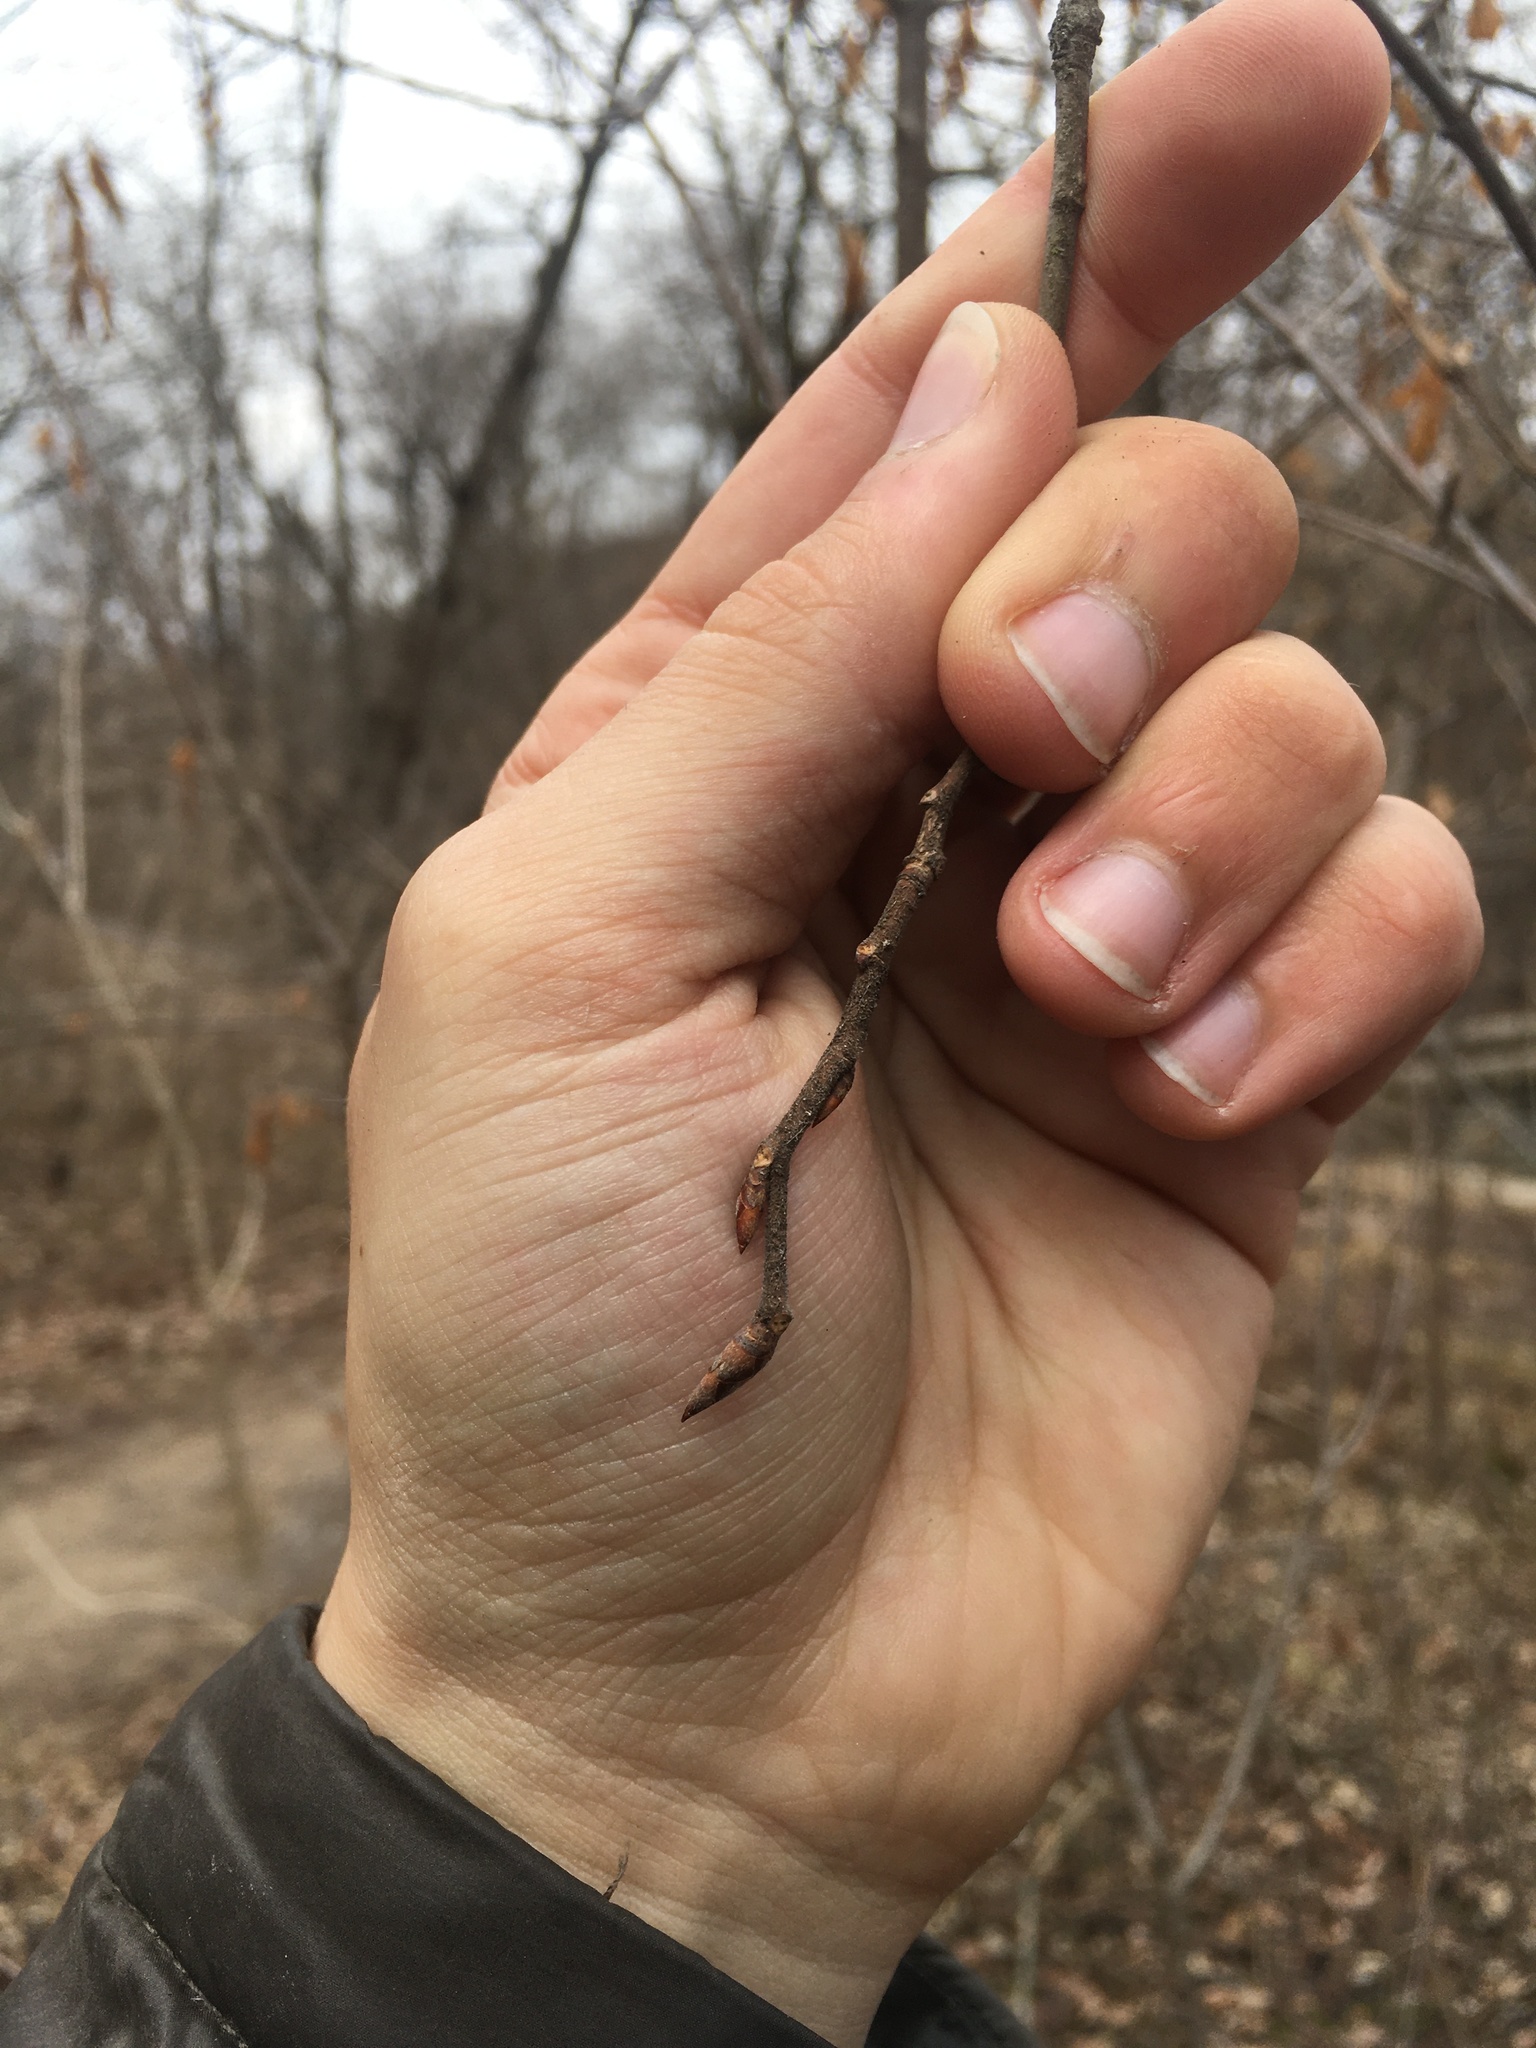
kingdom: Plantae
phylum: Tracheophyta
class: Magnoliopsida
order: Rosales
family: Ulmaceae
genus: Ulmus
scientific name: Ulmus thomasii
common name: Rock elm
